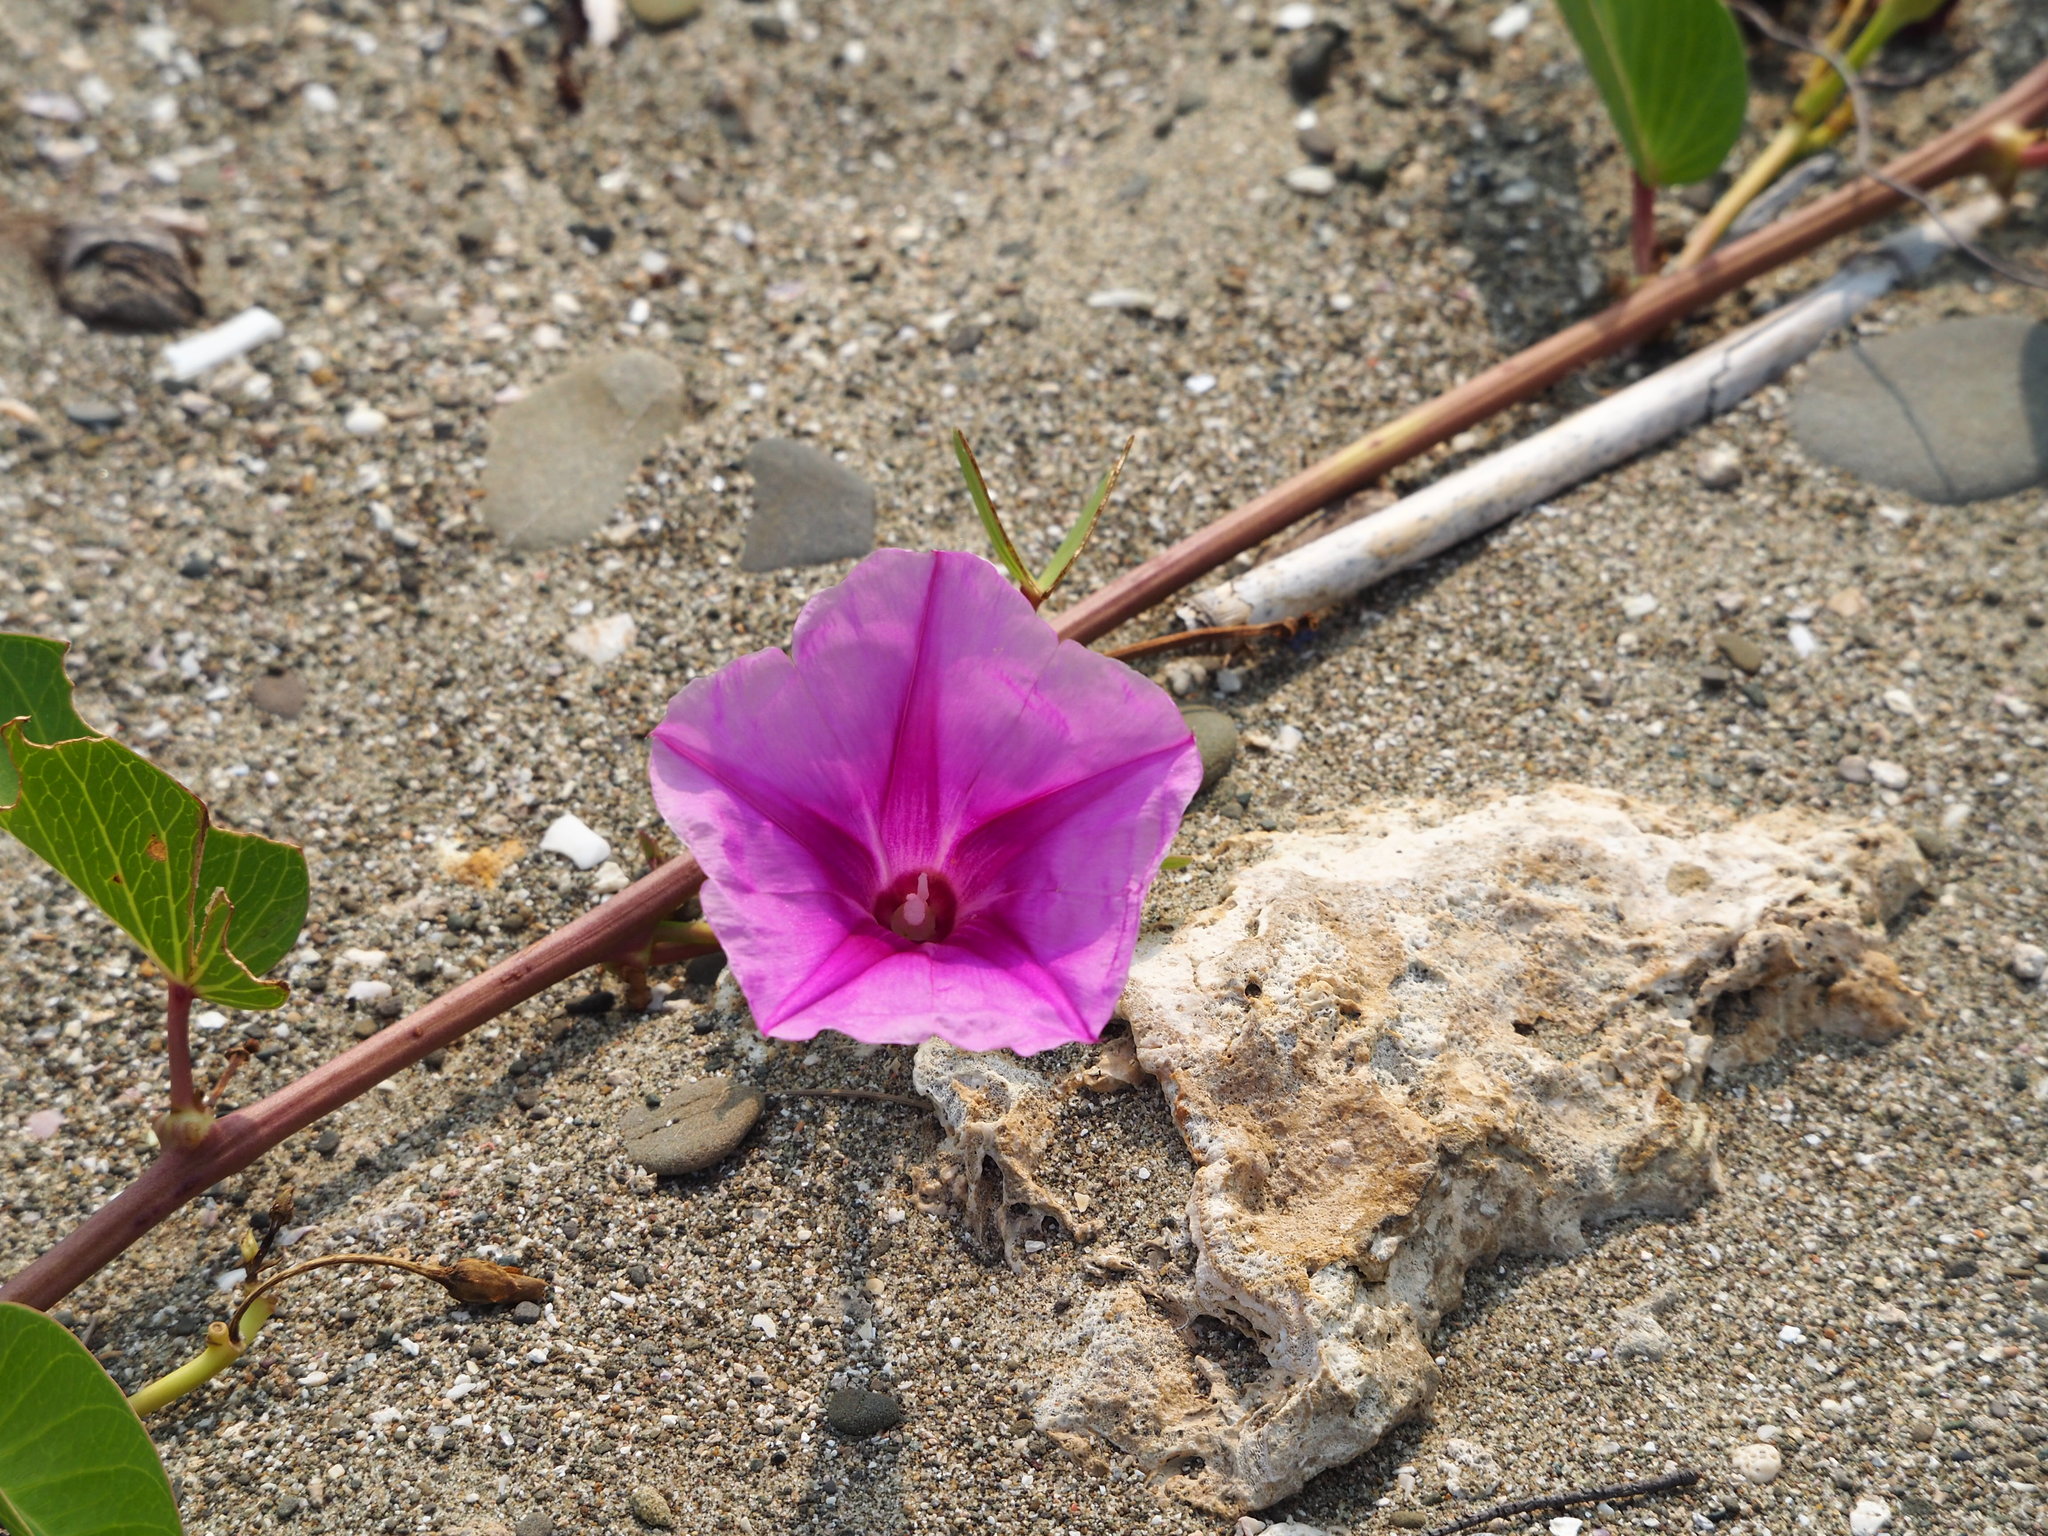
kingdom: Plantae
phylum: Tracheophyta
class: Magnoliopsida
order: Solanales
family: Convolvulaceae
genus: Ipomoea
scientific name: Ipomoea pes-caprae
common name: Beach morning glory
